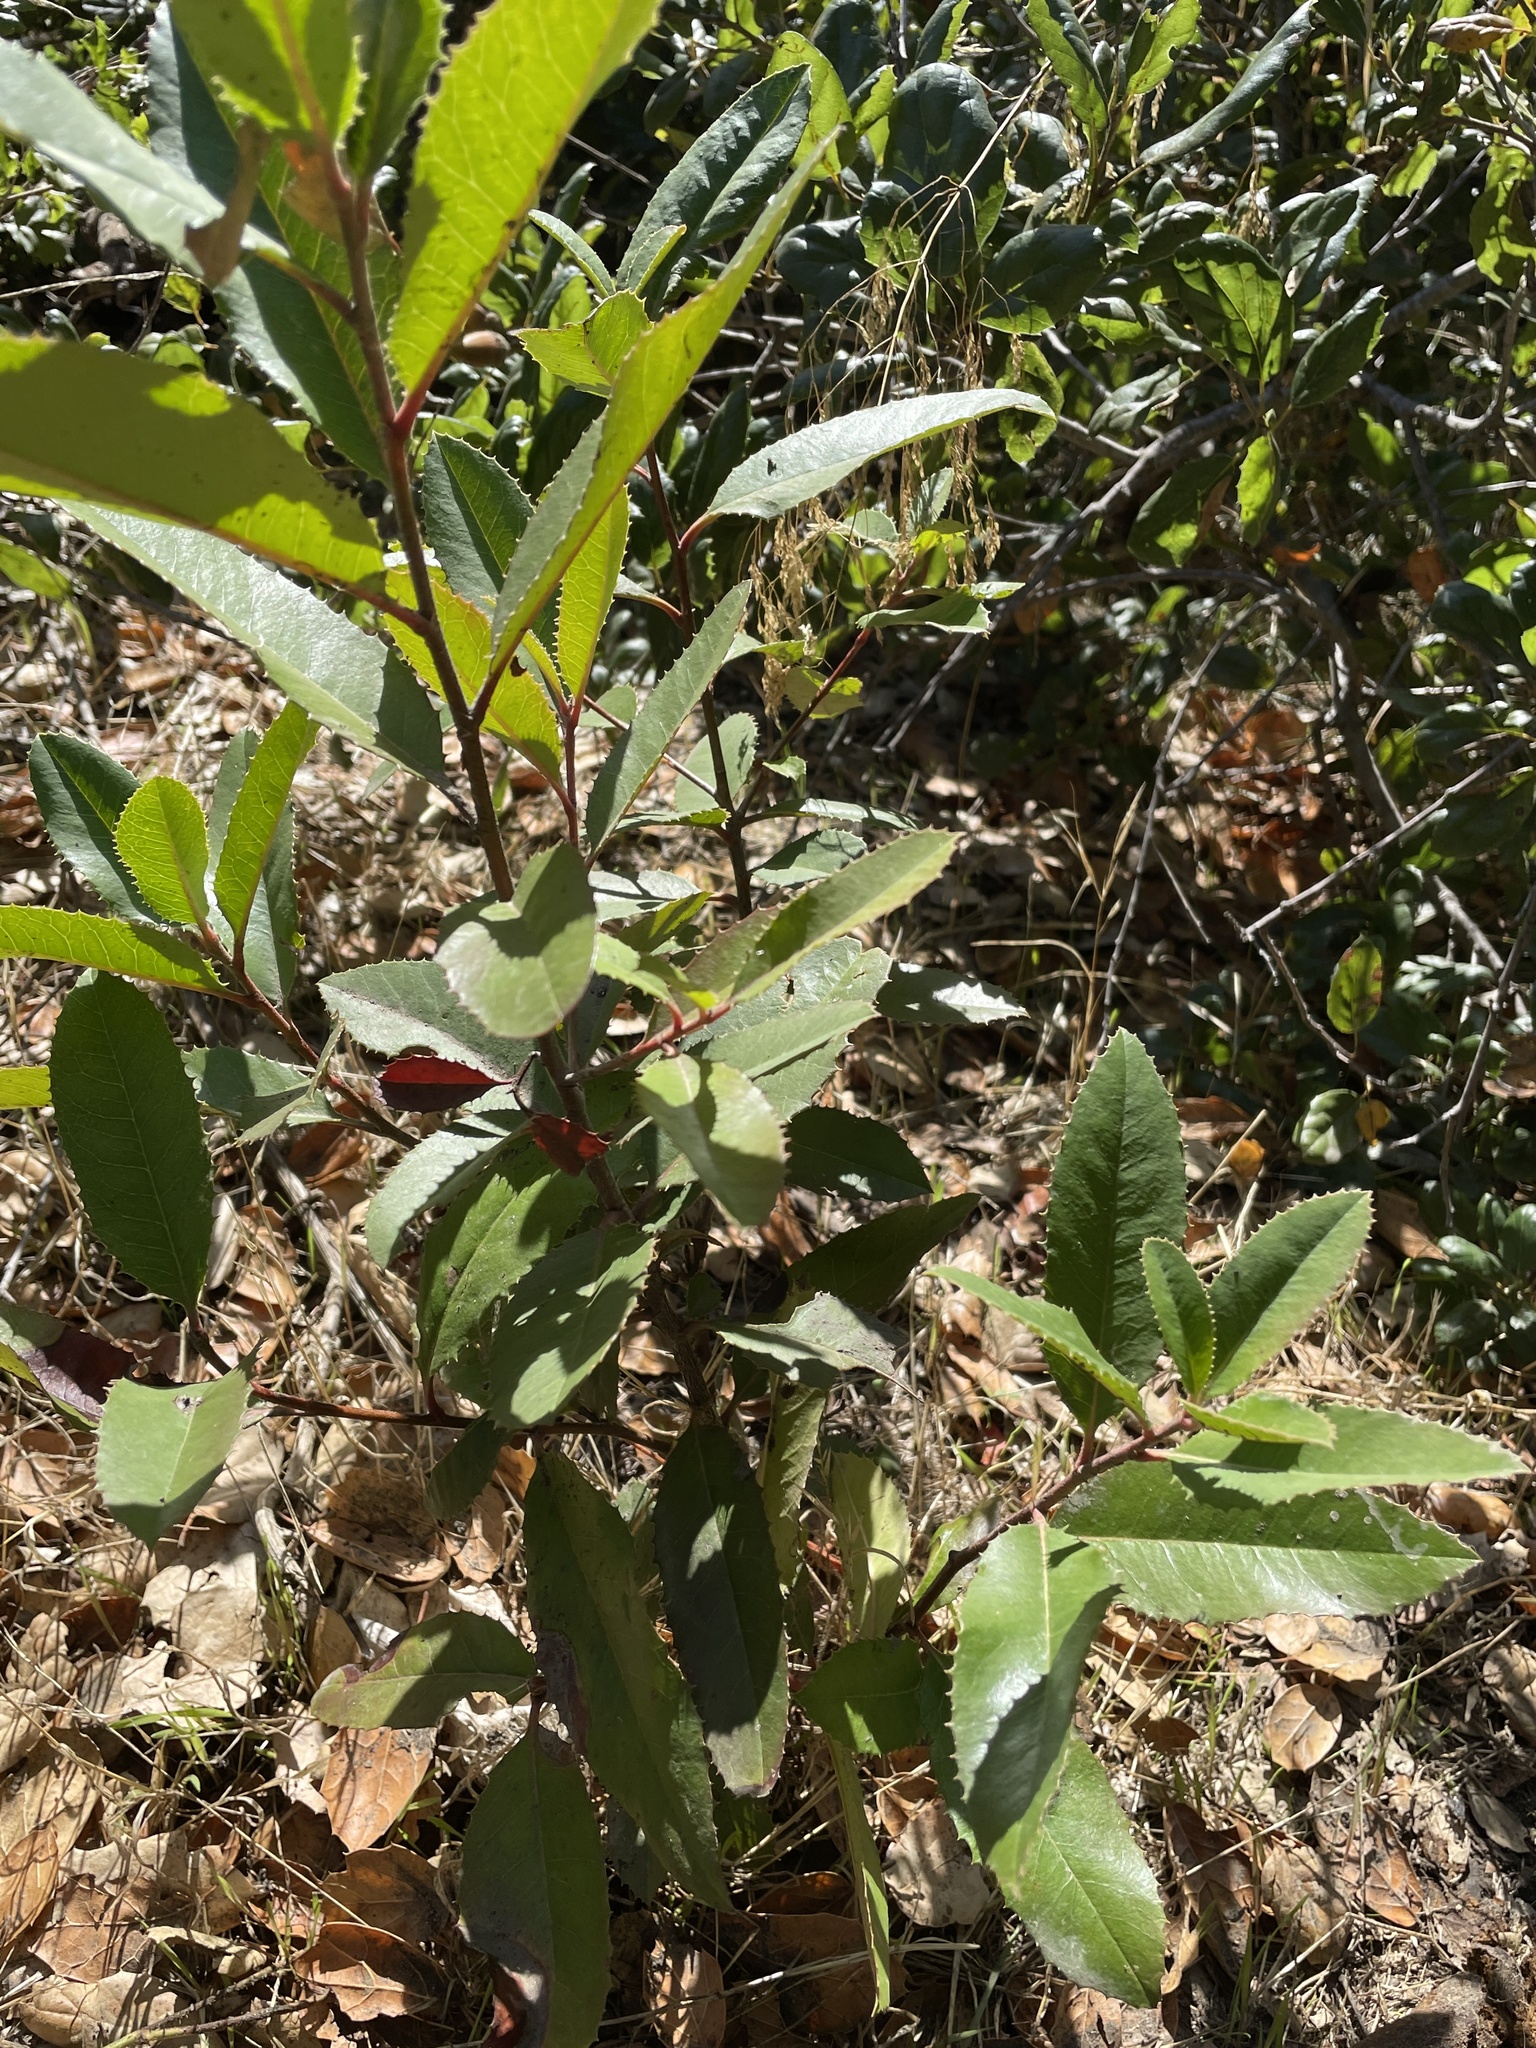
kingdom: Plantae
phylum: Tracheophyta
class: Magnoliopsida
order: Rosales
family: Rosaceae
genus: Heteromeles
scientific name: Heteromeles arbutifolia
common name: California-holly
